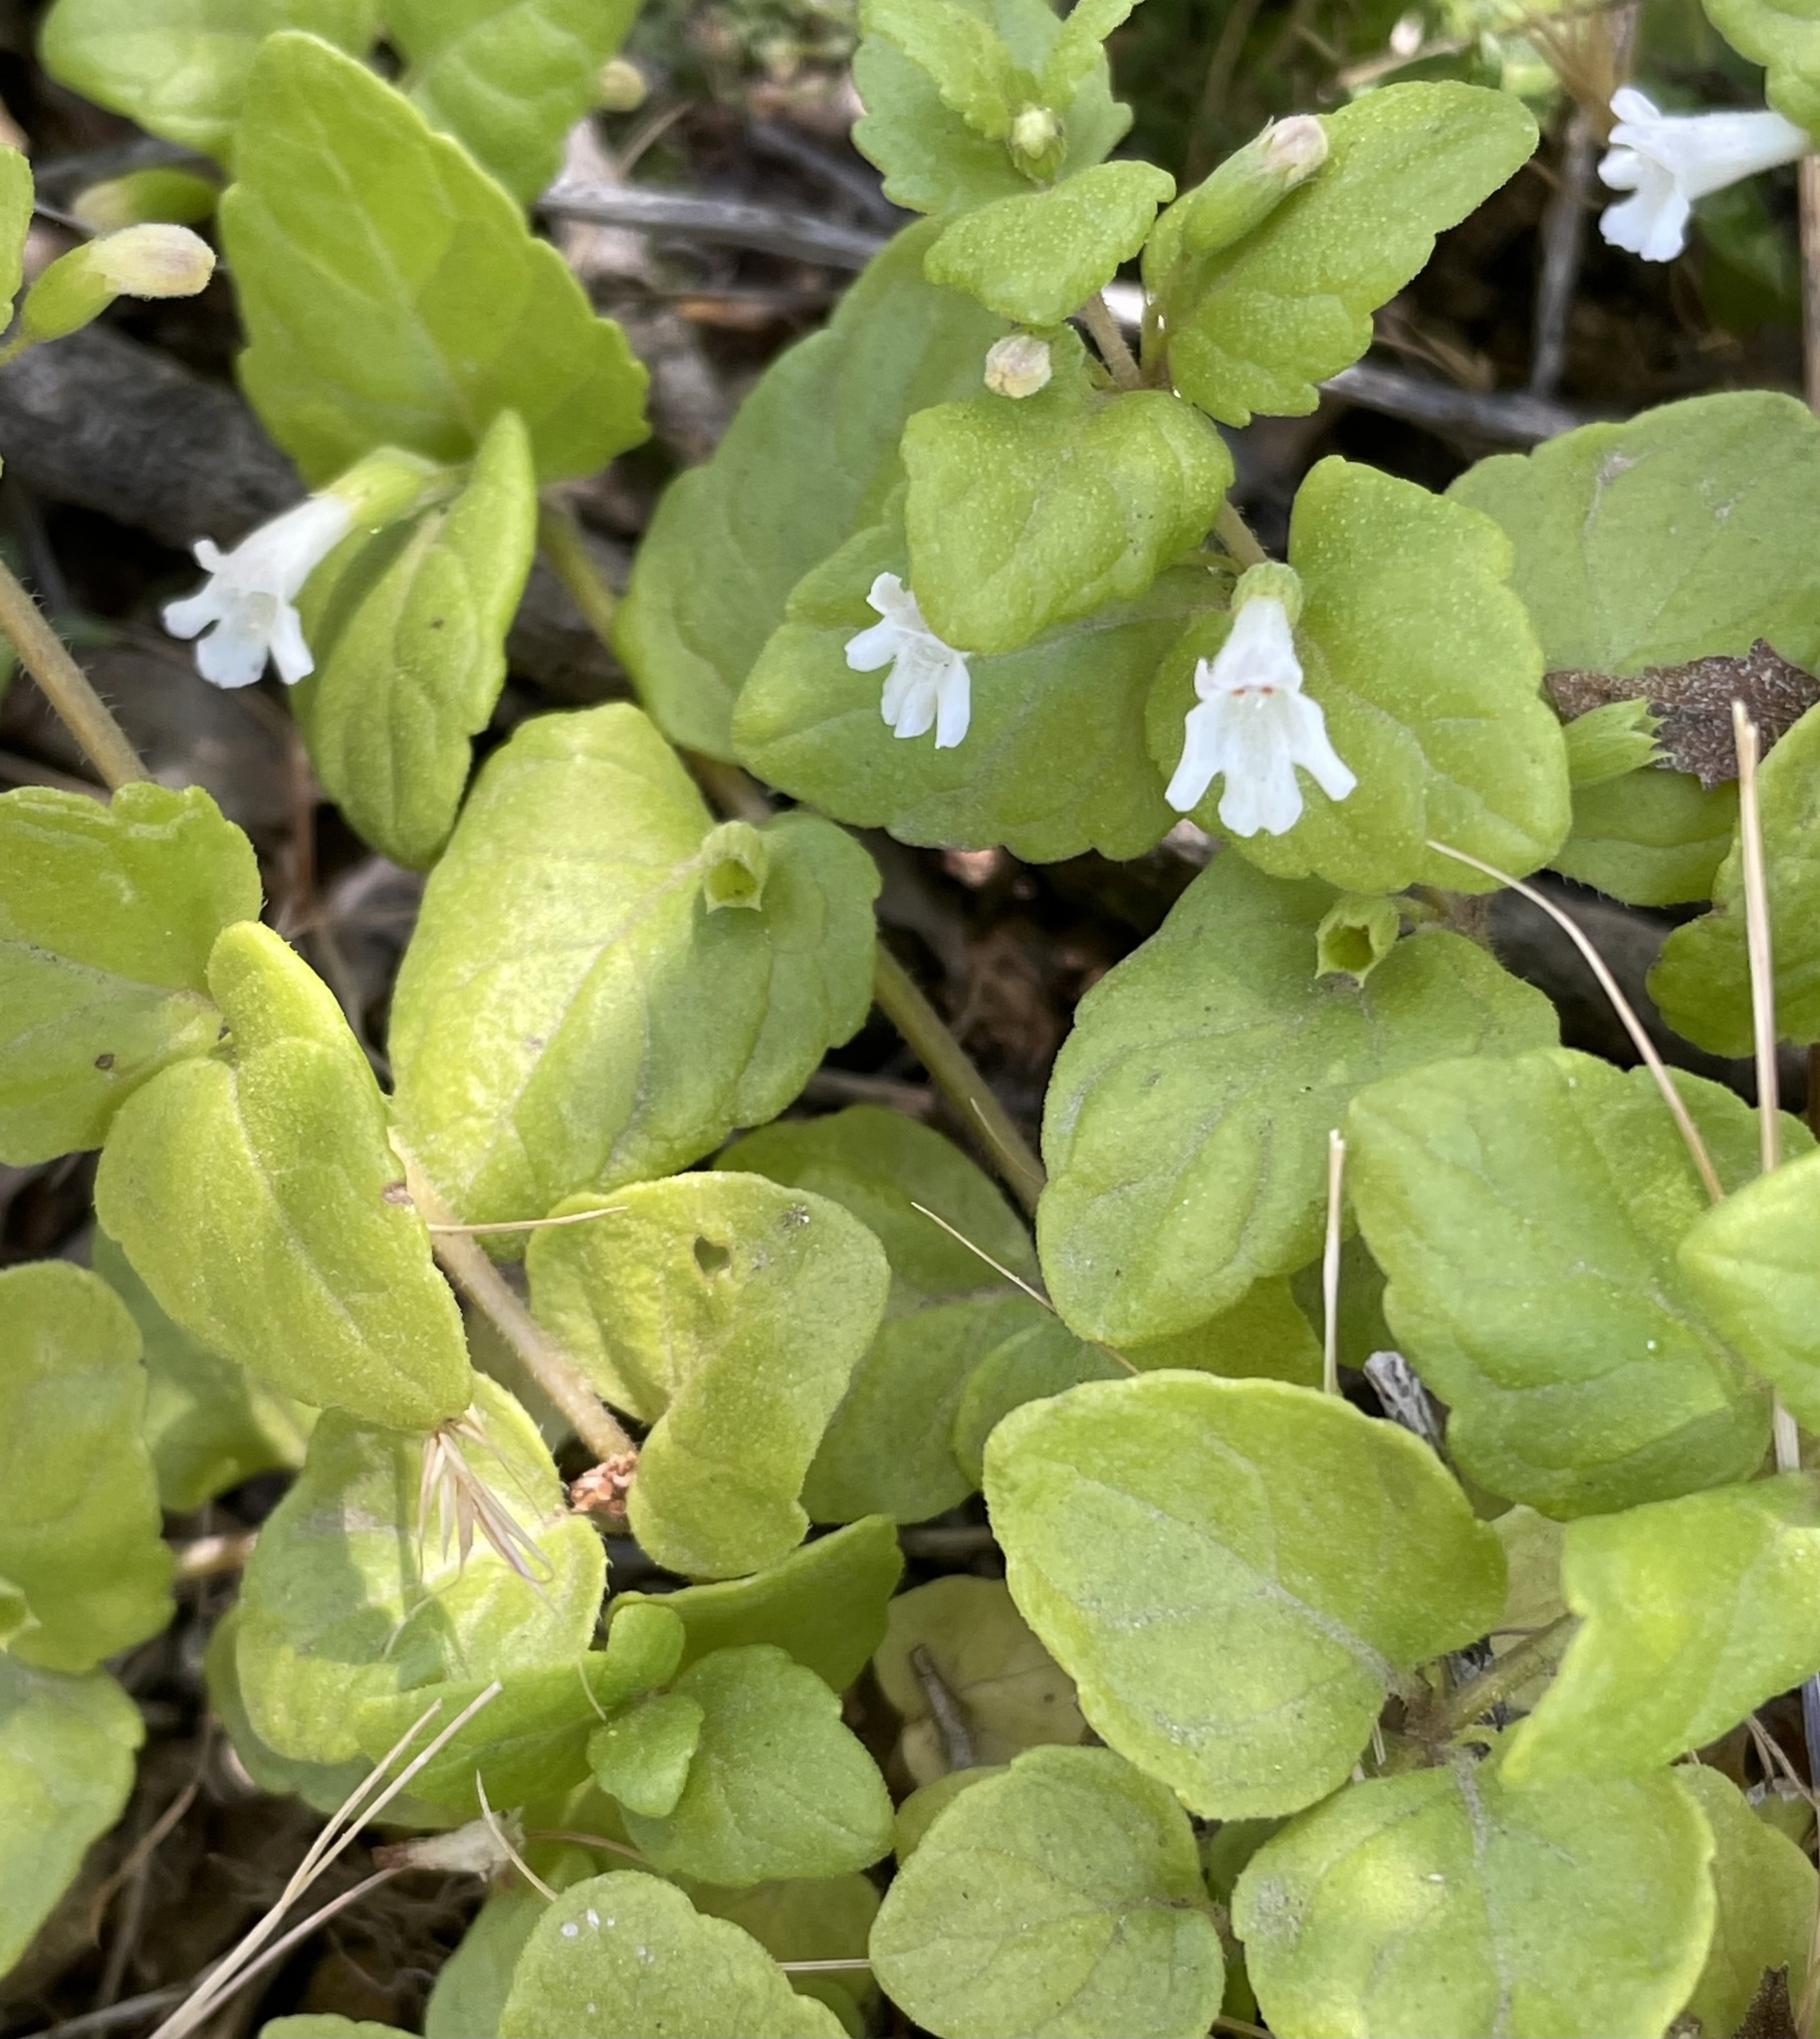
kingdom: Plantae
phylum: Tracheophyta
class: Magnoliopsida
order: Lamiales
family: Lamiaceae
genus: Micromeria
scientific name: Micromeria douglasii
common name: Yerba buena
